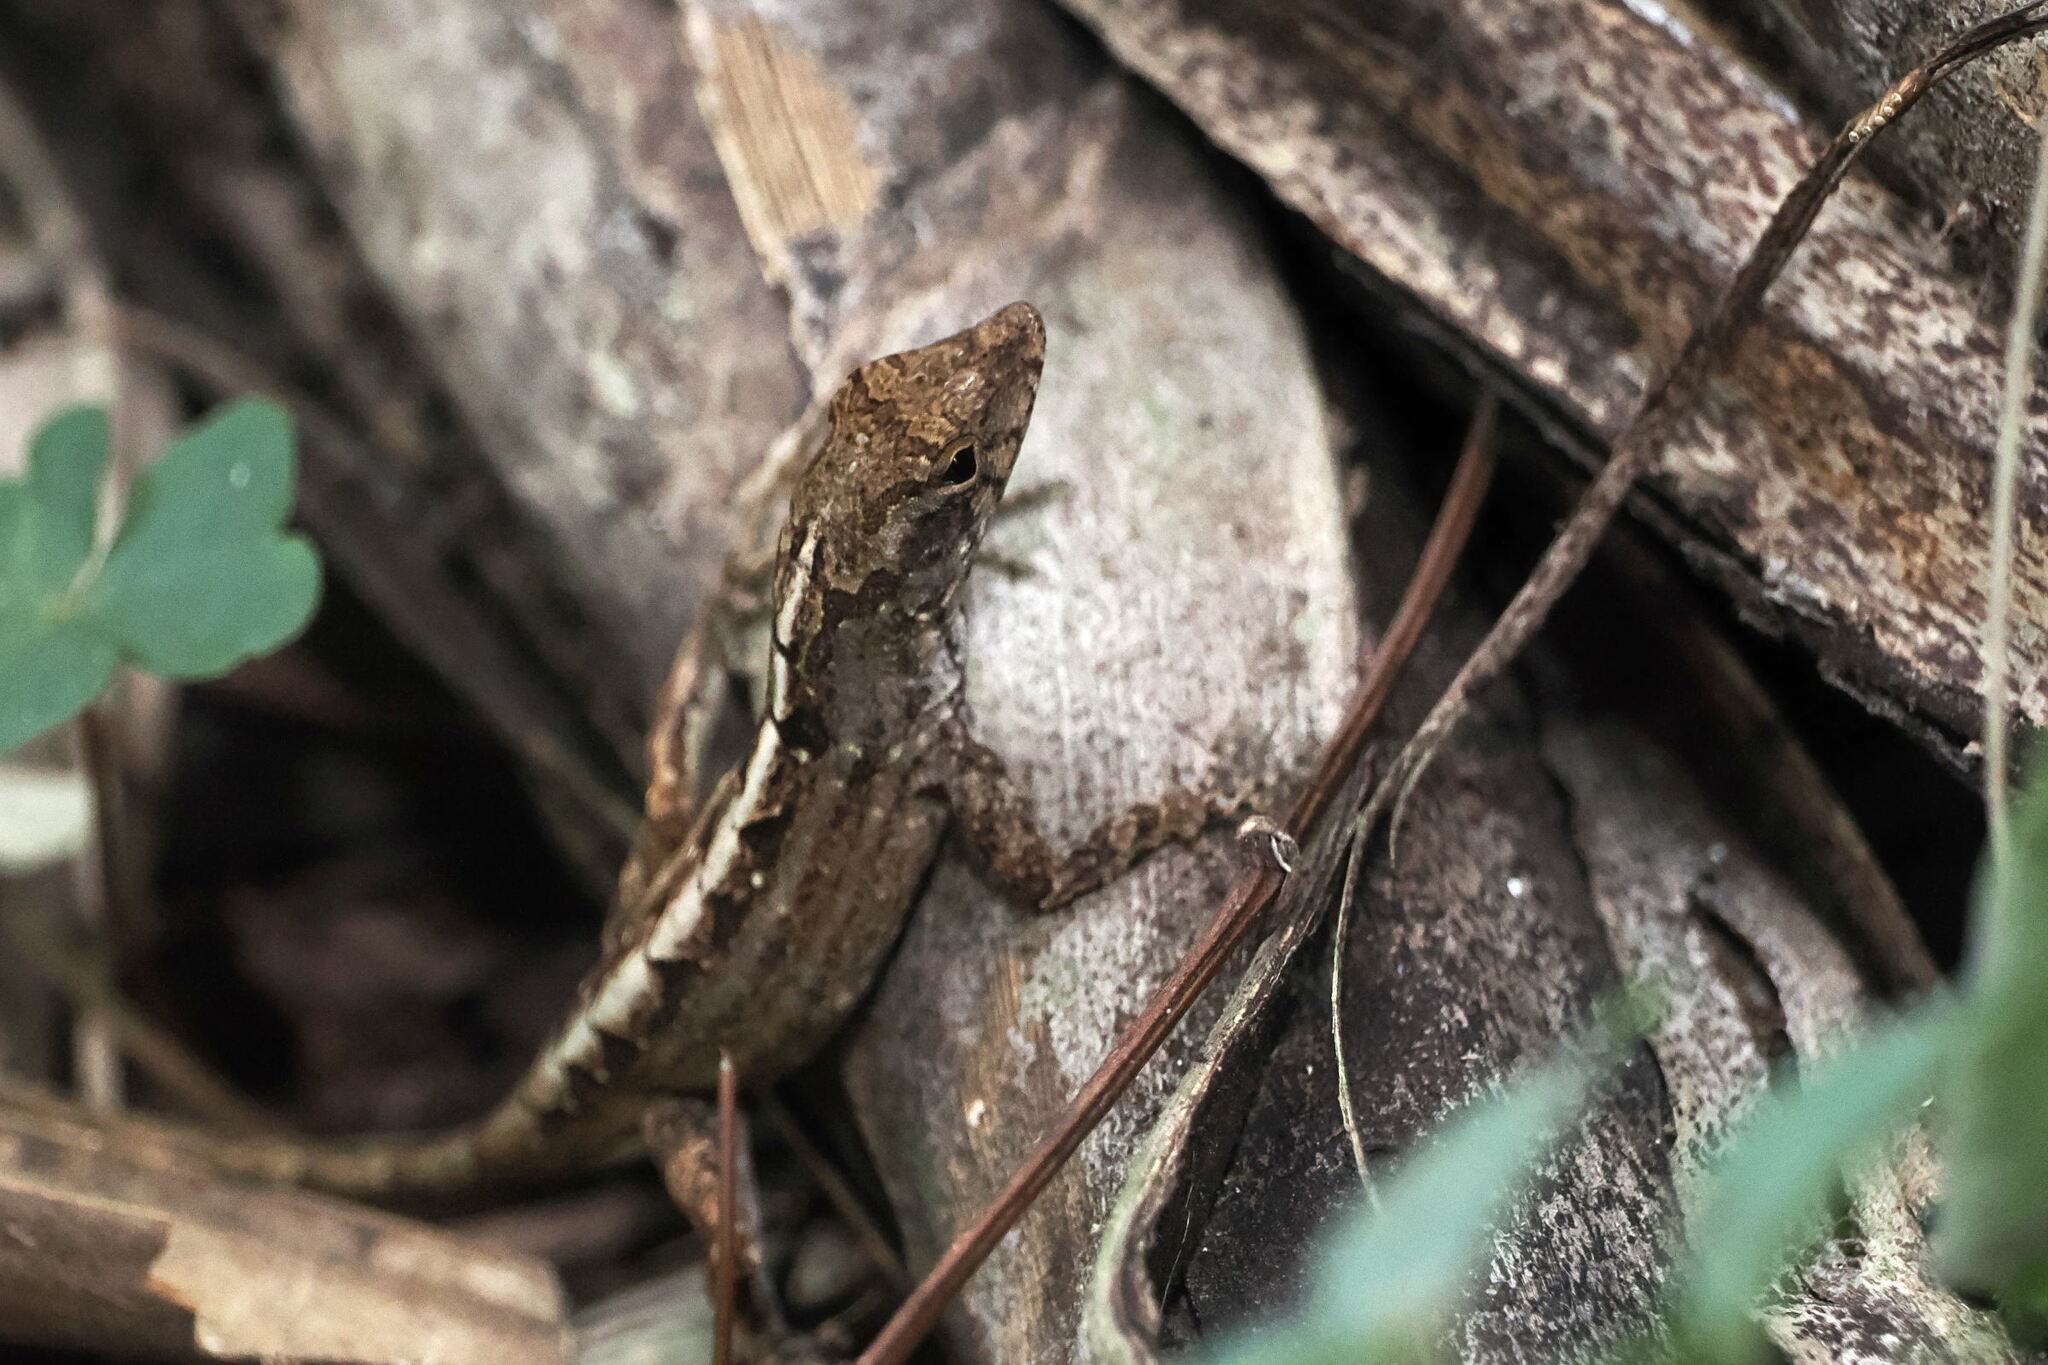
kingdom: Animalia
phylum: Chordata
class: Squamata
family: Dactyloidae
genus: Anolis
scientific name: Anolis sagrei
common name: Brown anole
